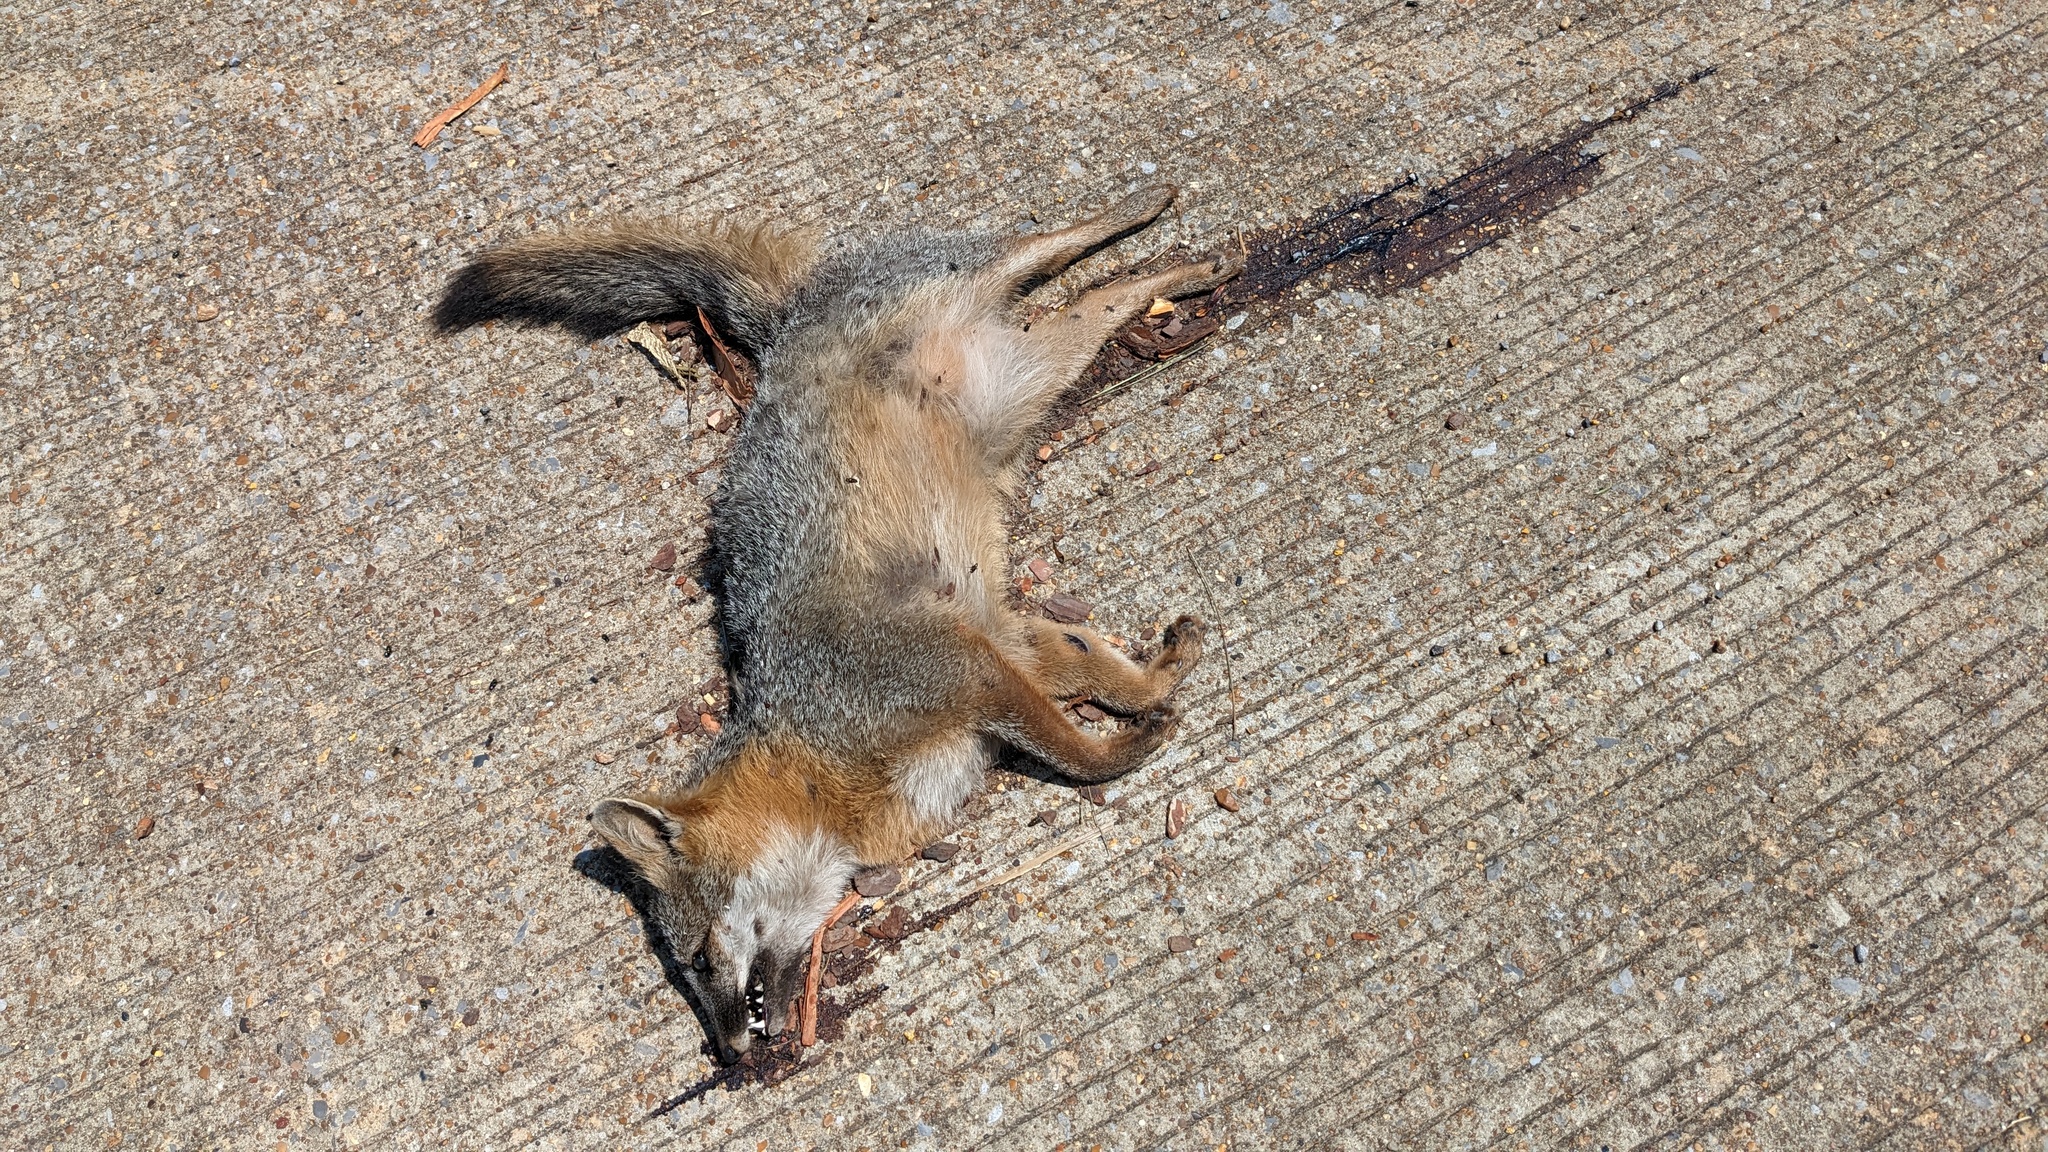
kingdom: Animalia
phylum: Chordata
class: Mammalia
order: Carnivora
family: Canidae
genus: Urocyon
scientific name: Urocyon cinereoargenteus
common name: Gray fox
